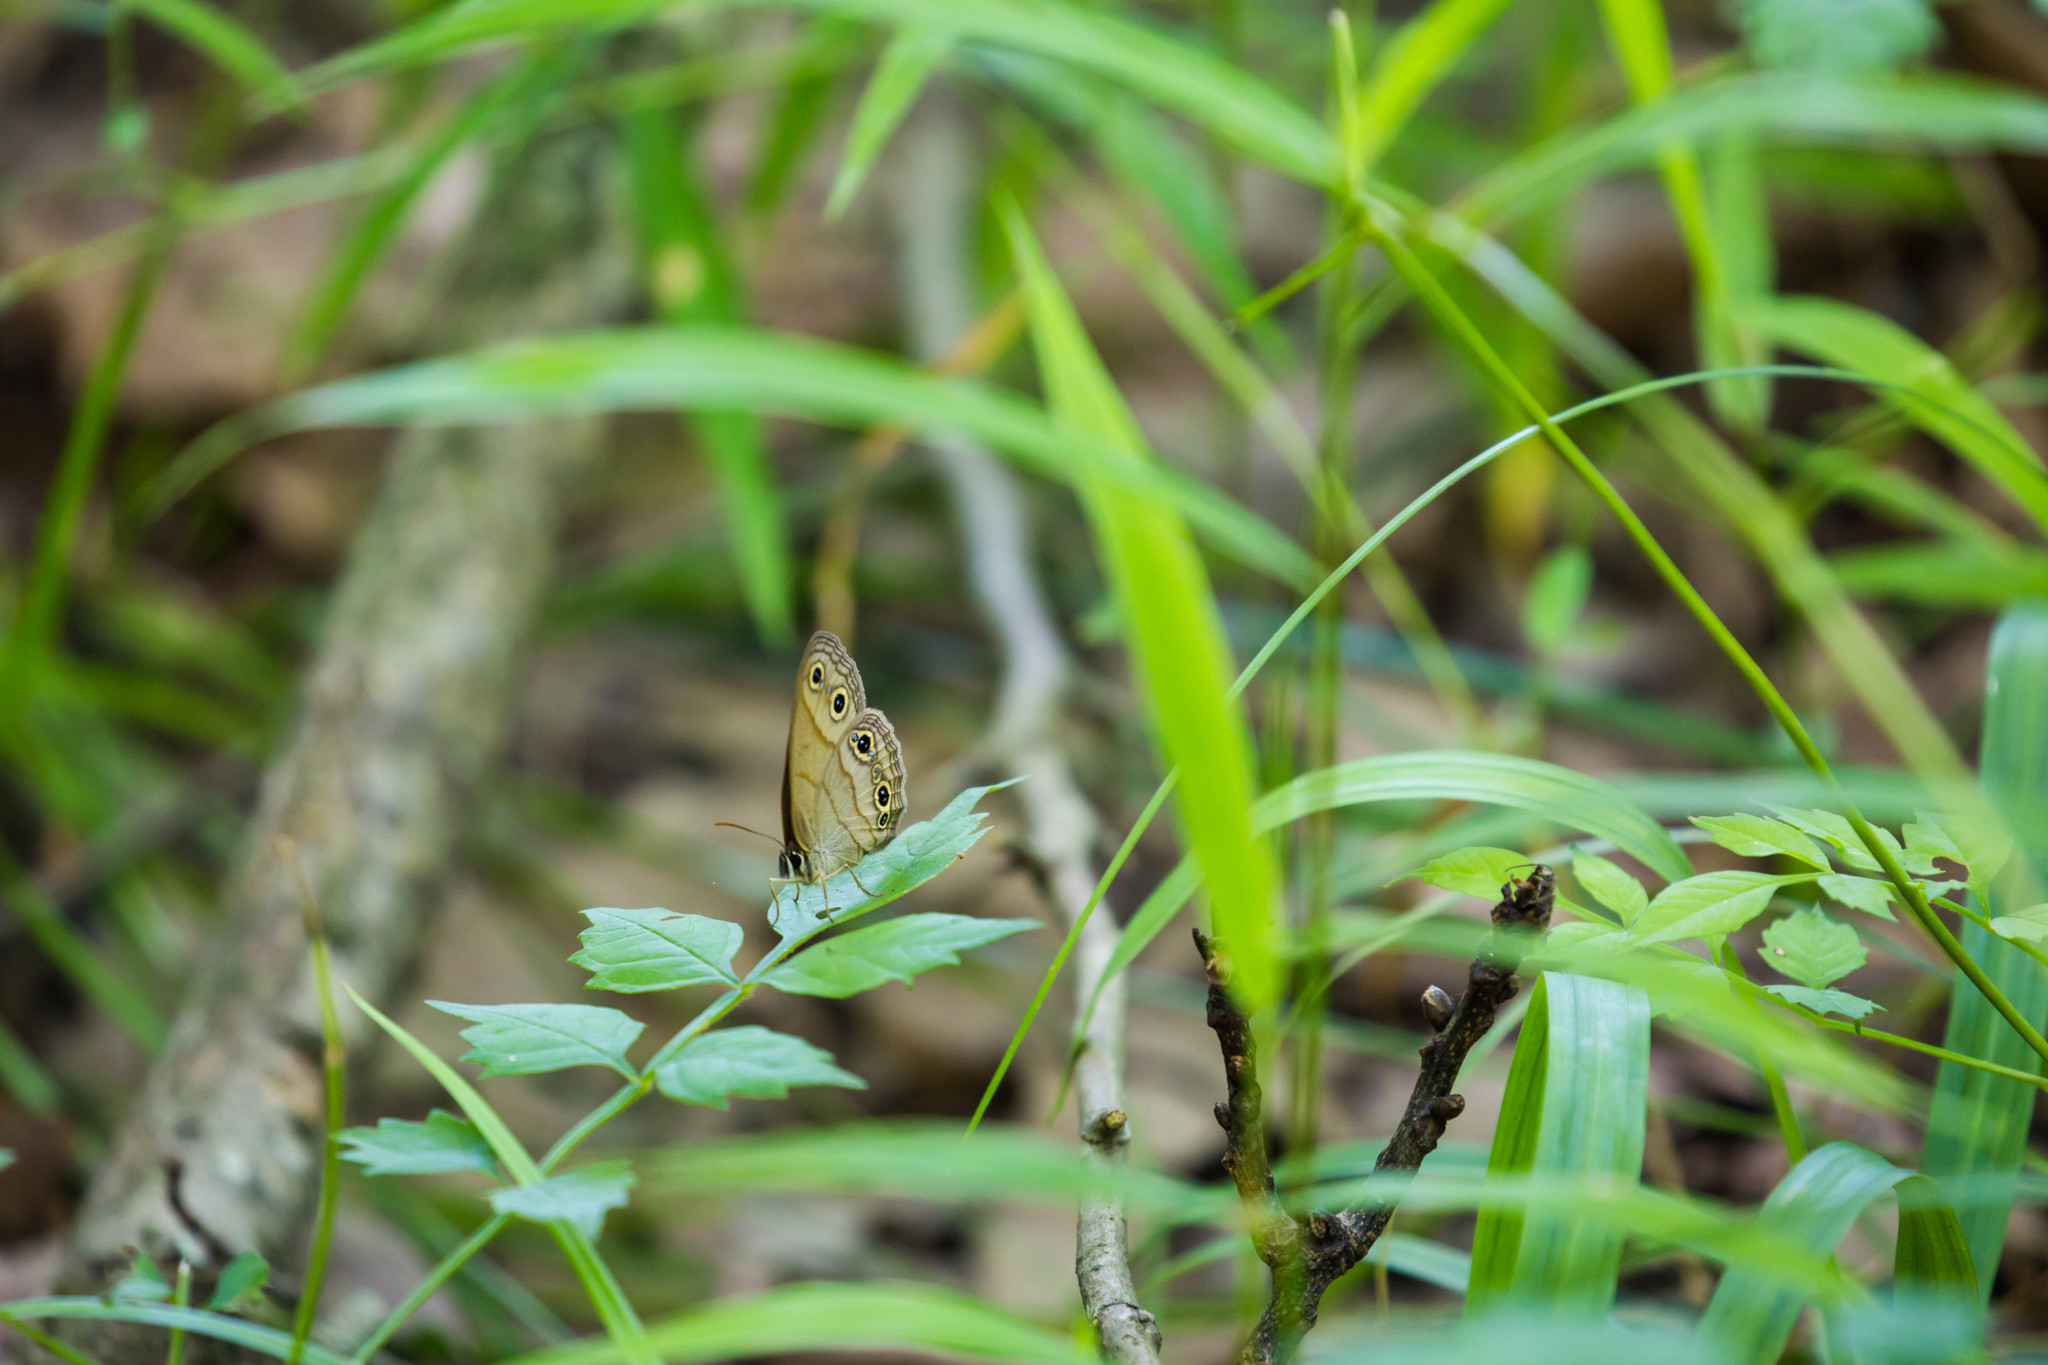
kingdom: Animalia
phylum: Arthropoda
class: Insecta
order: Lepidoptera
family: Nymphalidae
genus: Euptychia
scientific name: Euptychia cymela
